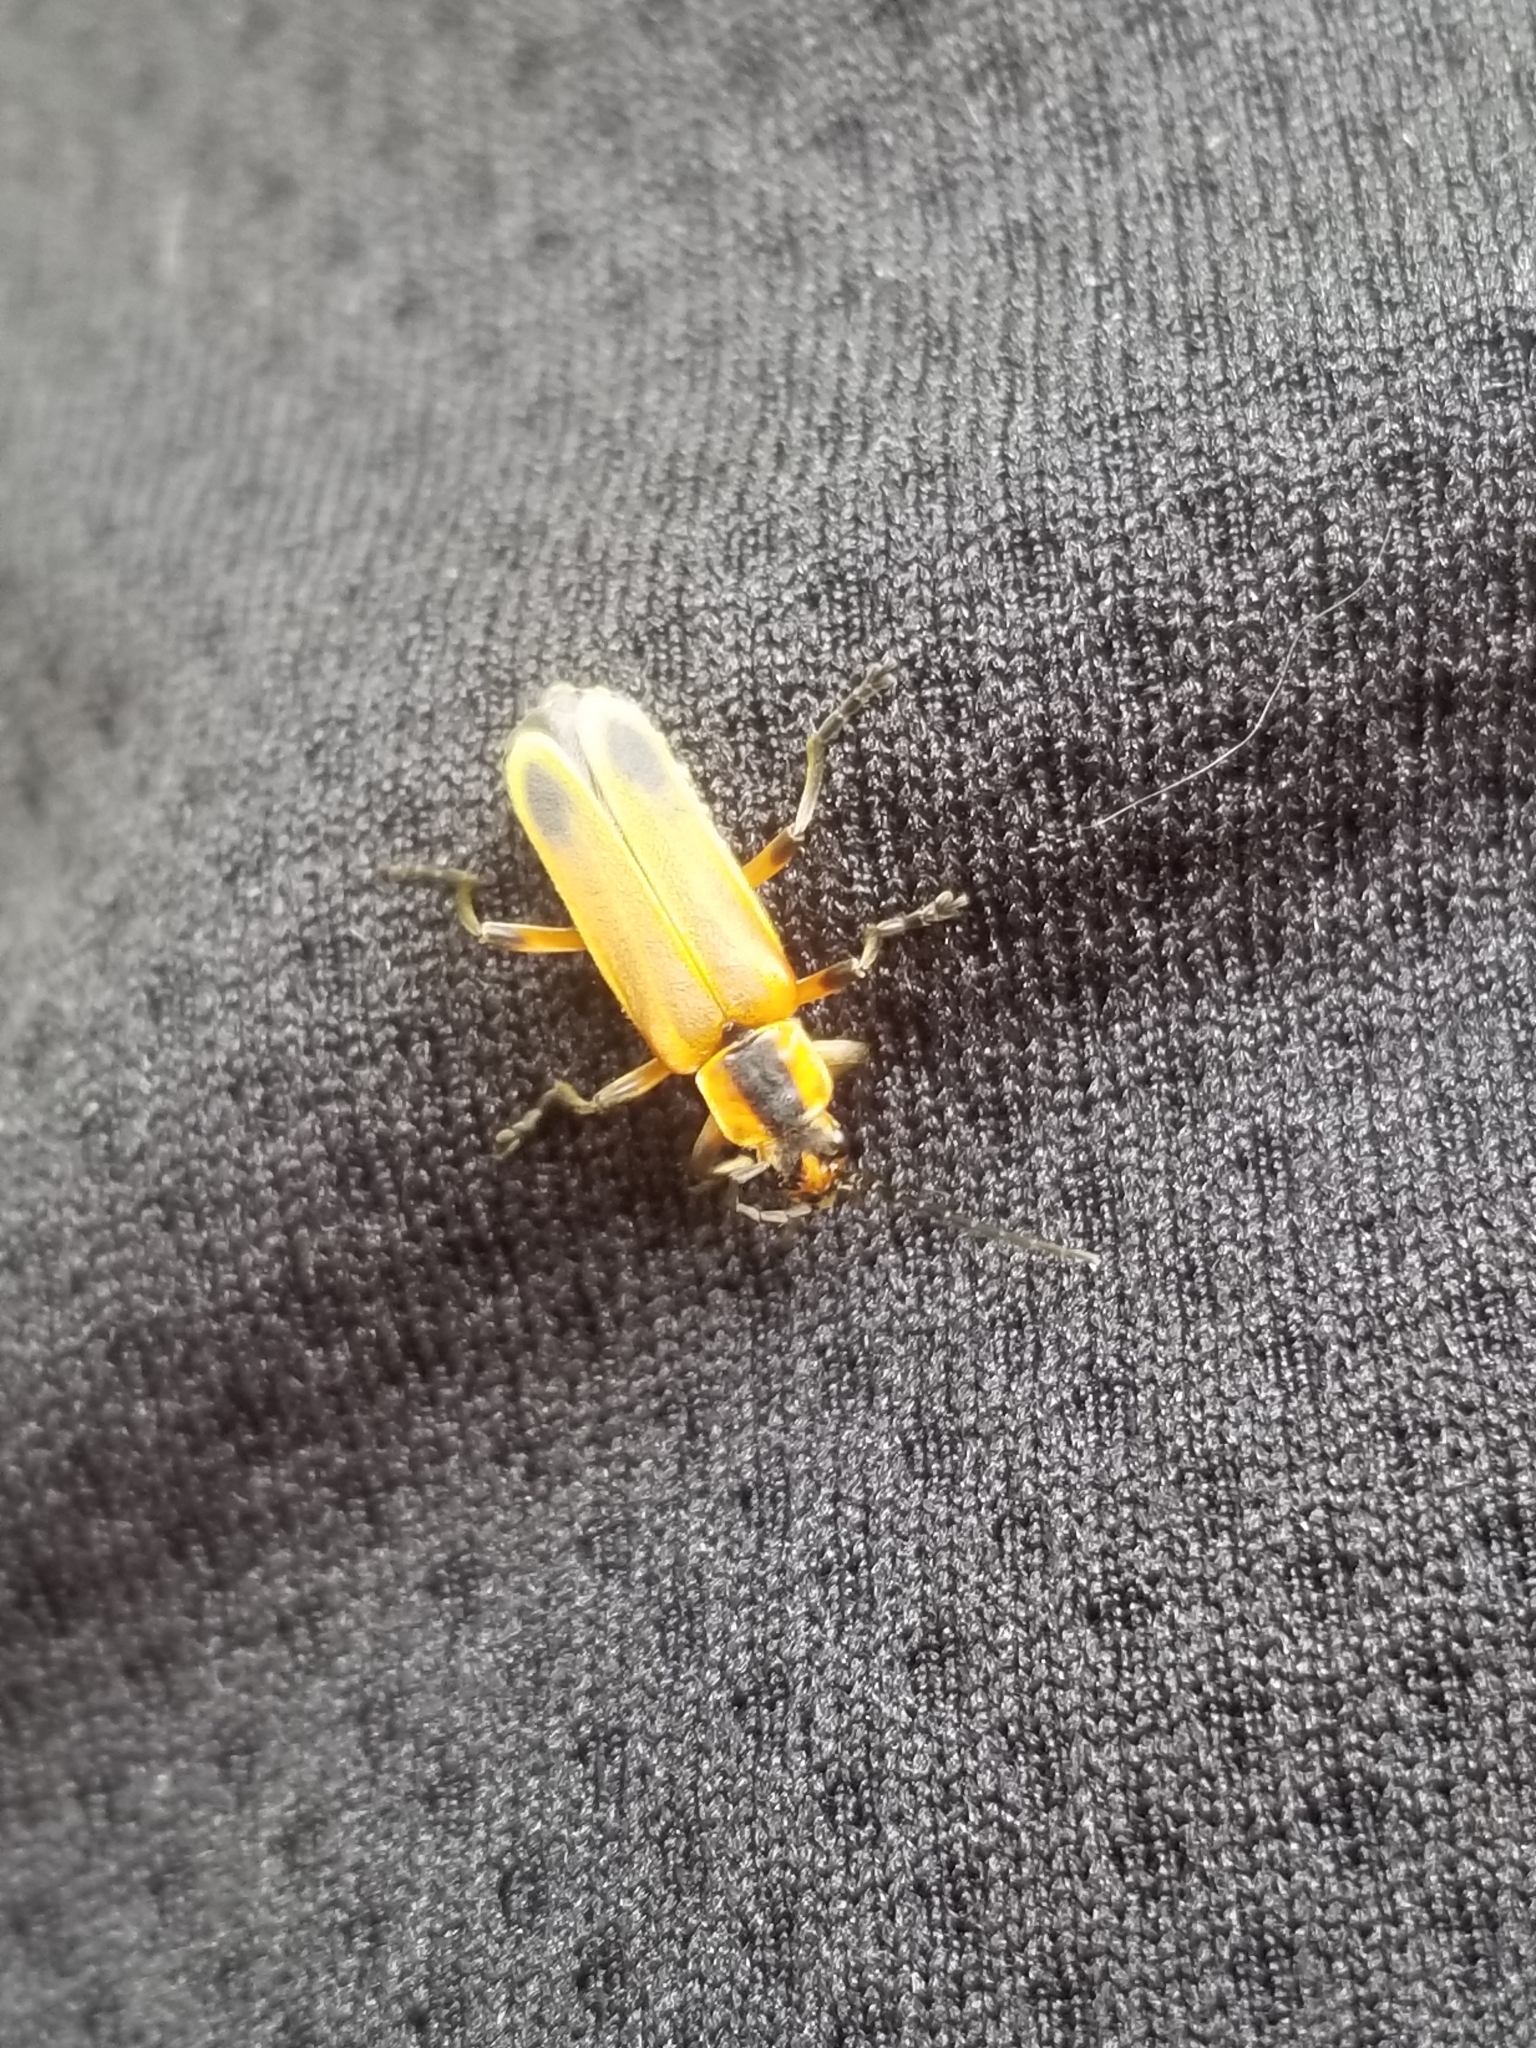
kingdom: Animalia
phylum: Arthropoda
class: Insecta
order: Coleoptera
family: Cantharidae
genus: Chauliognathus
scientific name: Chauliognathus marginatus
